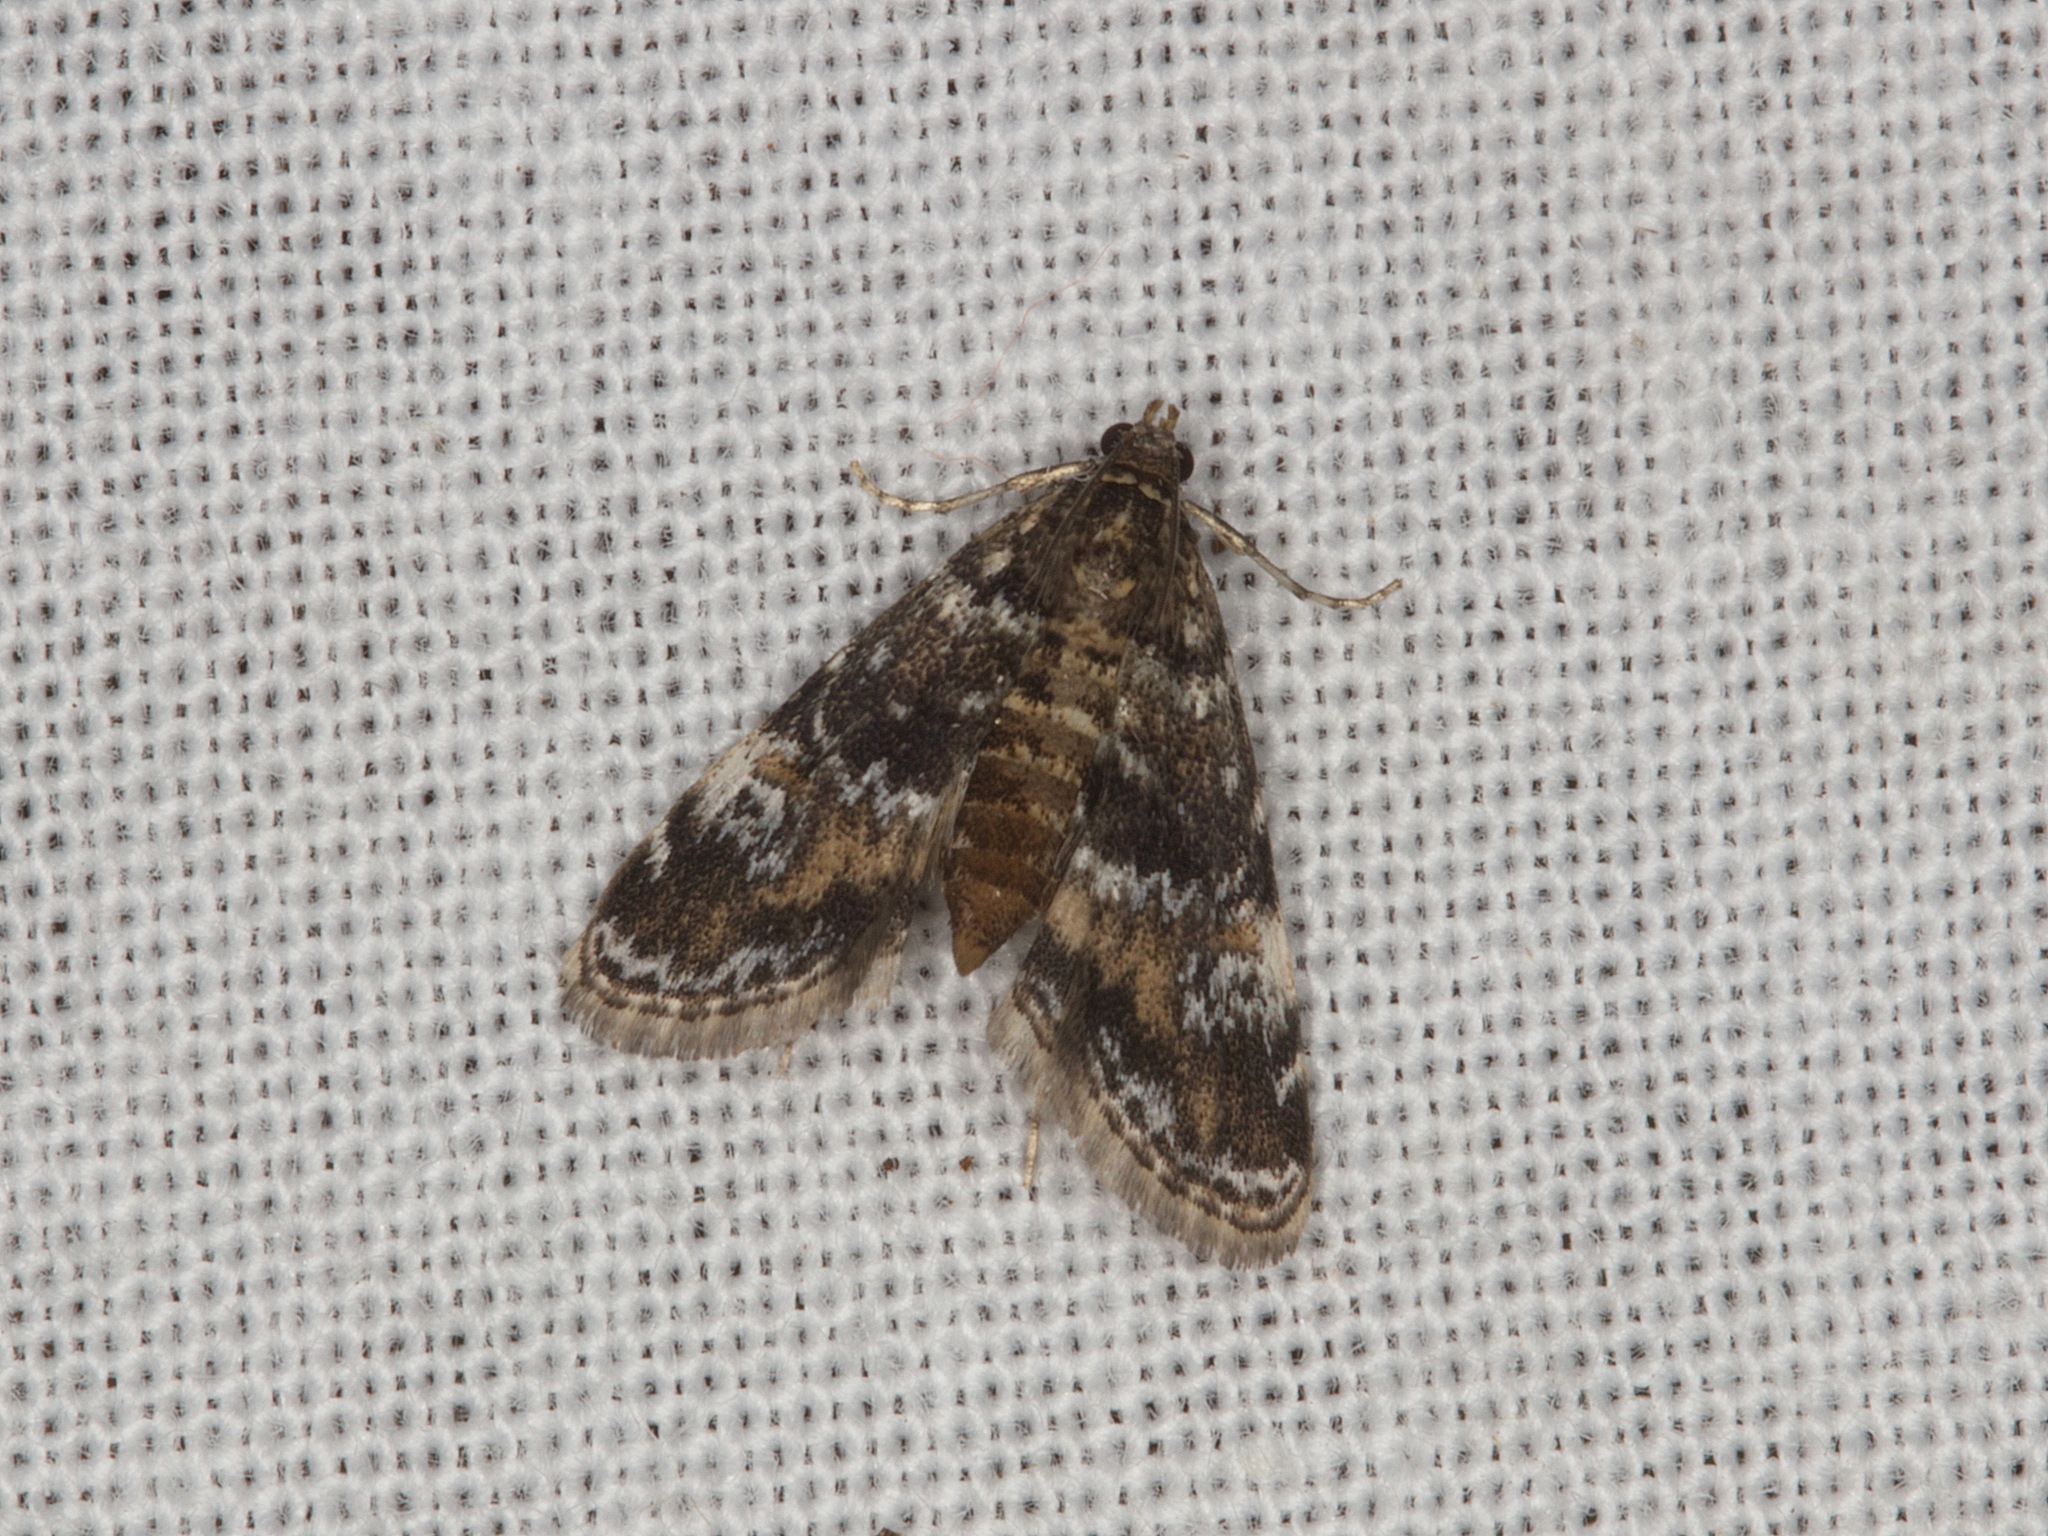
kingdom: Animalia
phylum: Arthropoda
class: Insecta
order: Lepidoptera
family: Crambidae
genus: Elophila
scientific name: Elophila obliteralis
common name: Waterlily leafcutter moth
